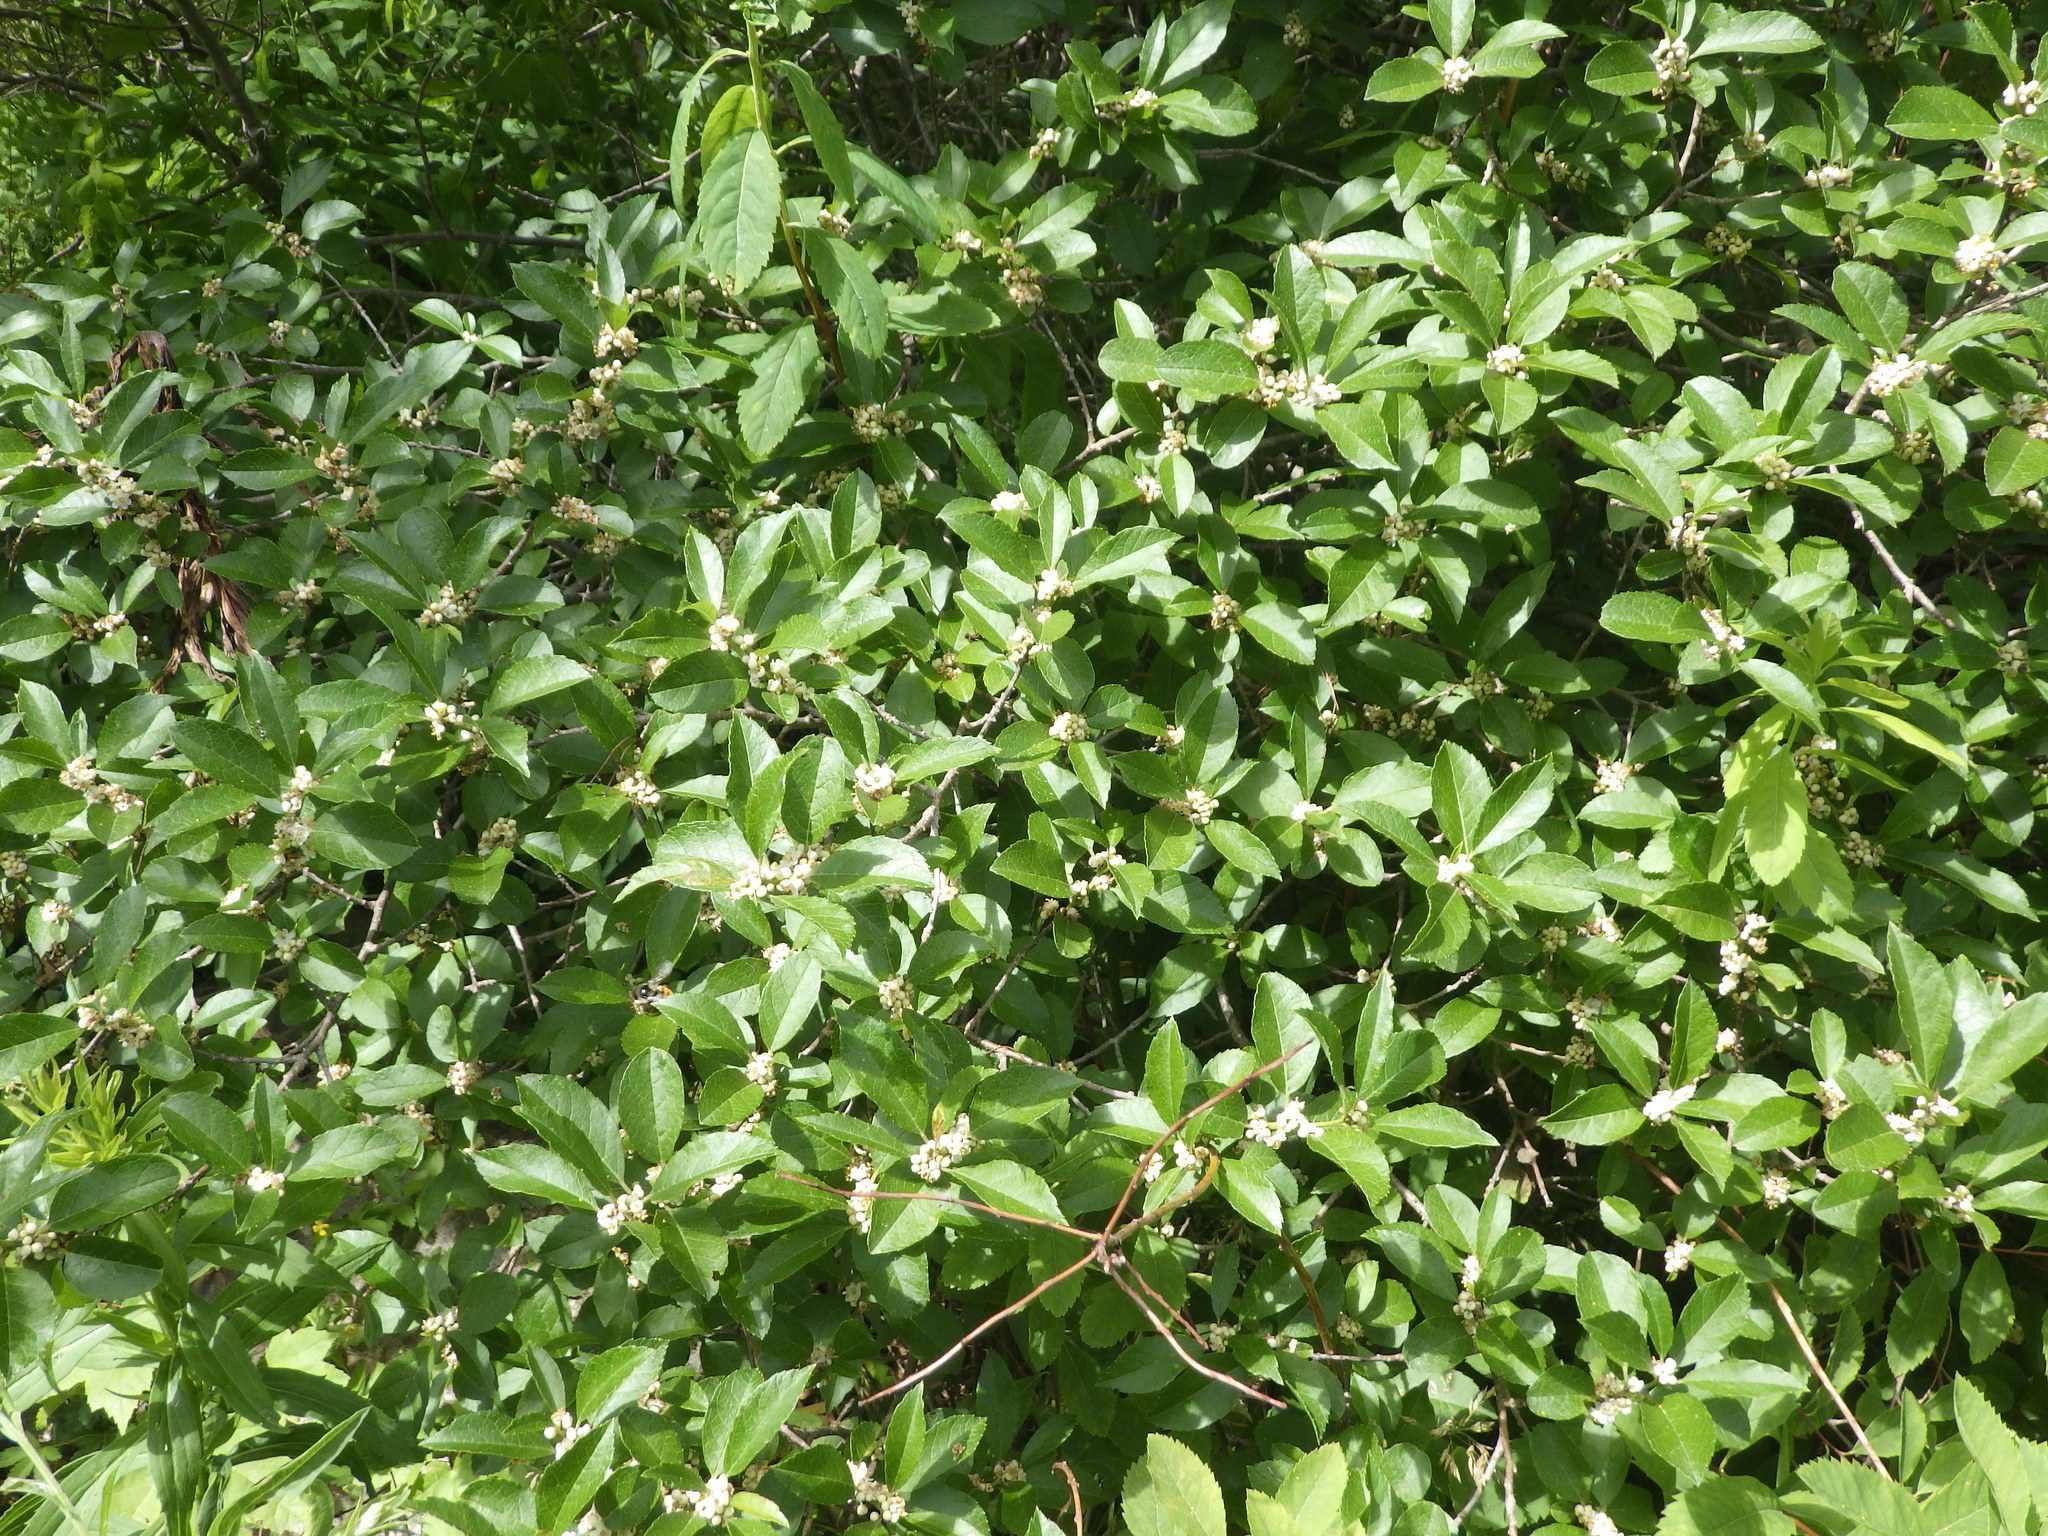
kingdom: Plantae
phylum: Tracheophyta
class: Magnoliopsida
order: Aquifoliales
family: Aquifoliaceae
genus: Ilex
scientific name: Ilex verticillata
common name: Virginia winterberry
